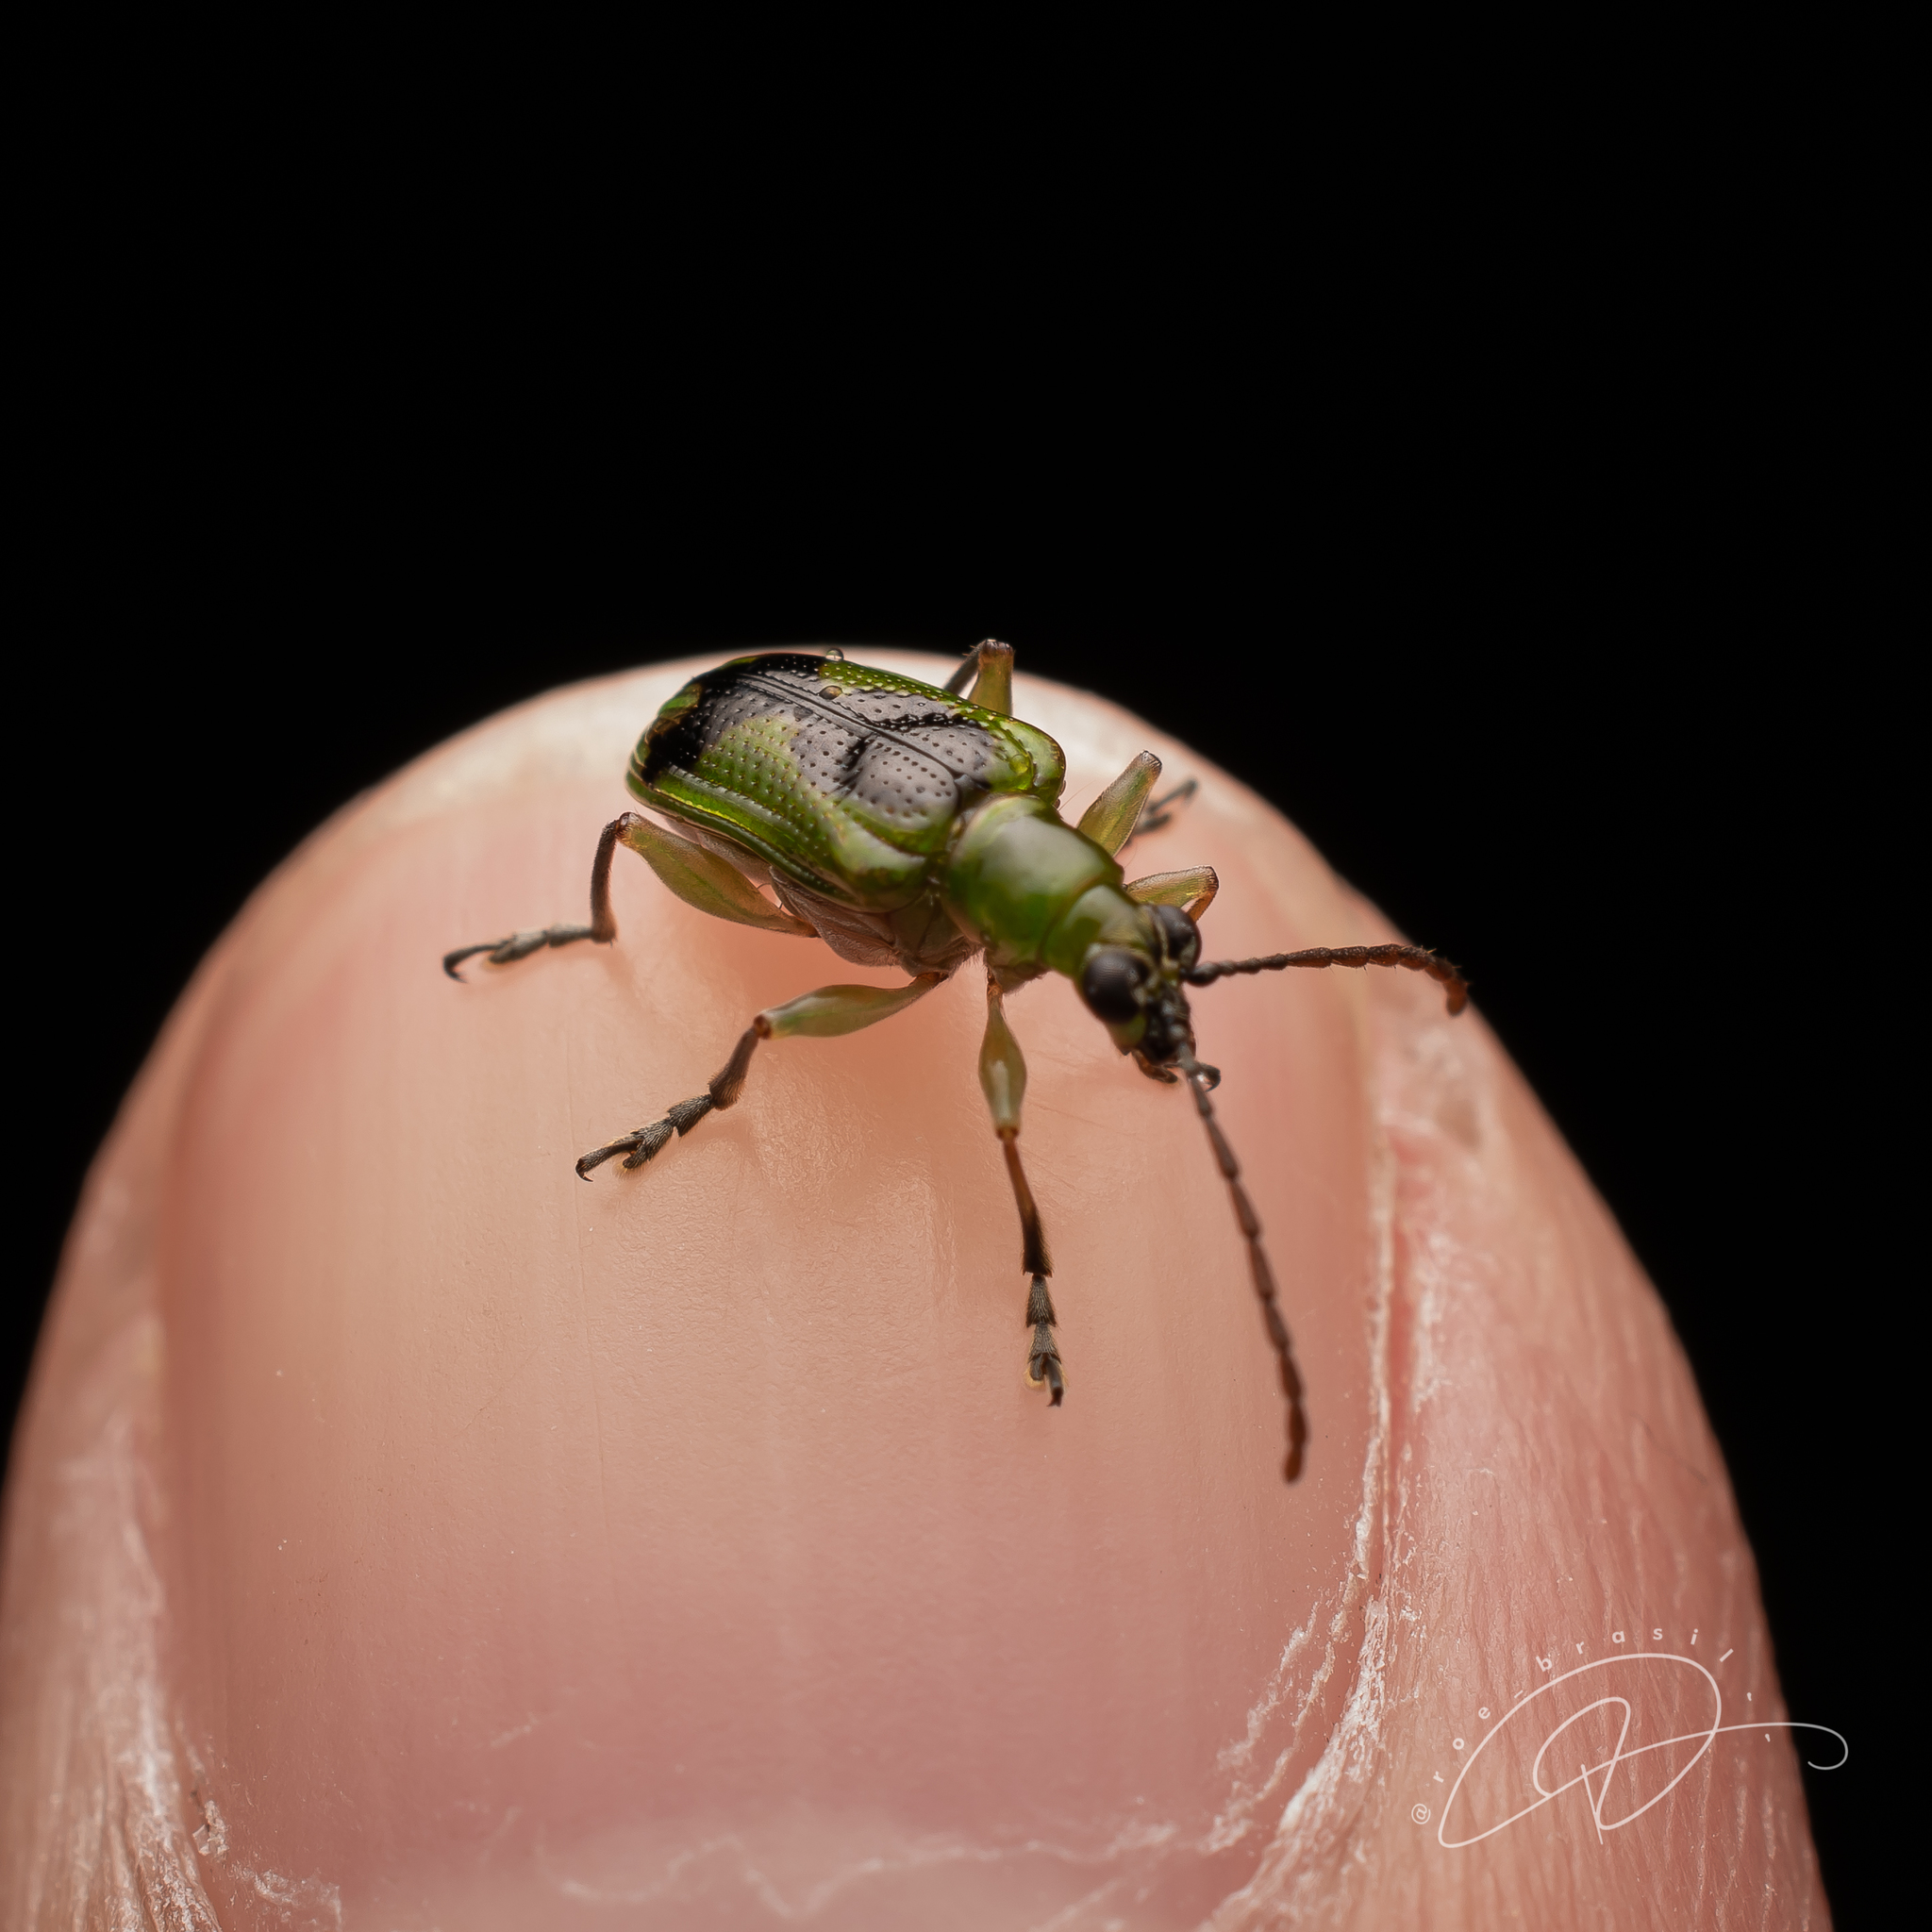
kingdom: Animalia
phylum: Arthropoda
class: Insecta
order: Coleoptera
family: Chrysomelidae
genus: Neolema
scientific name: Neolema
